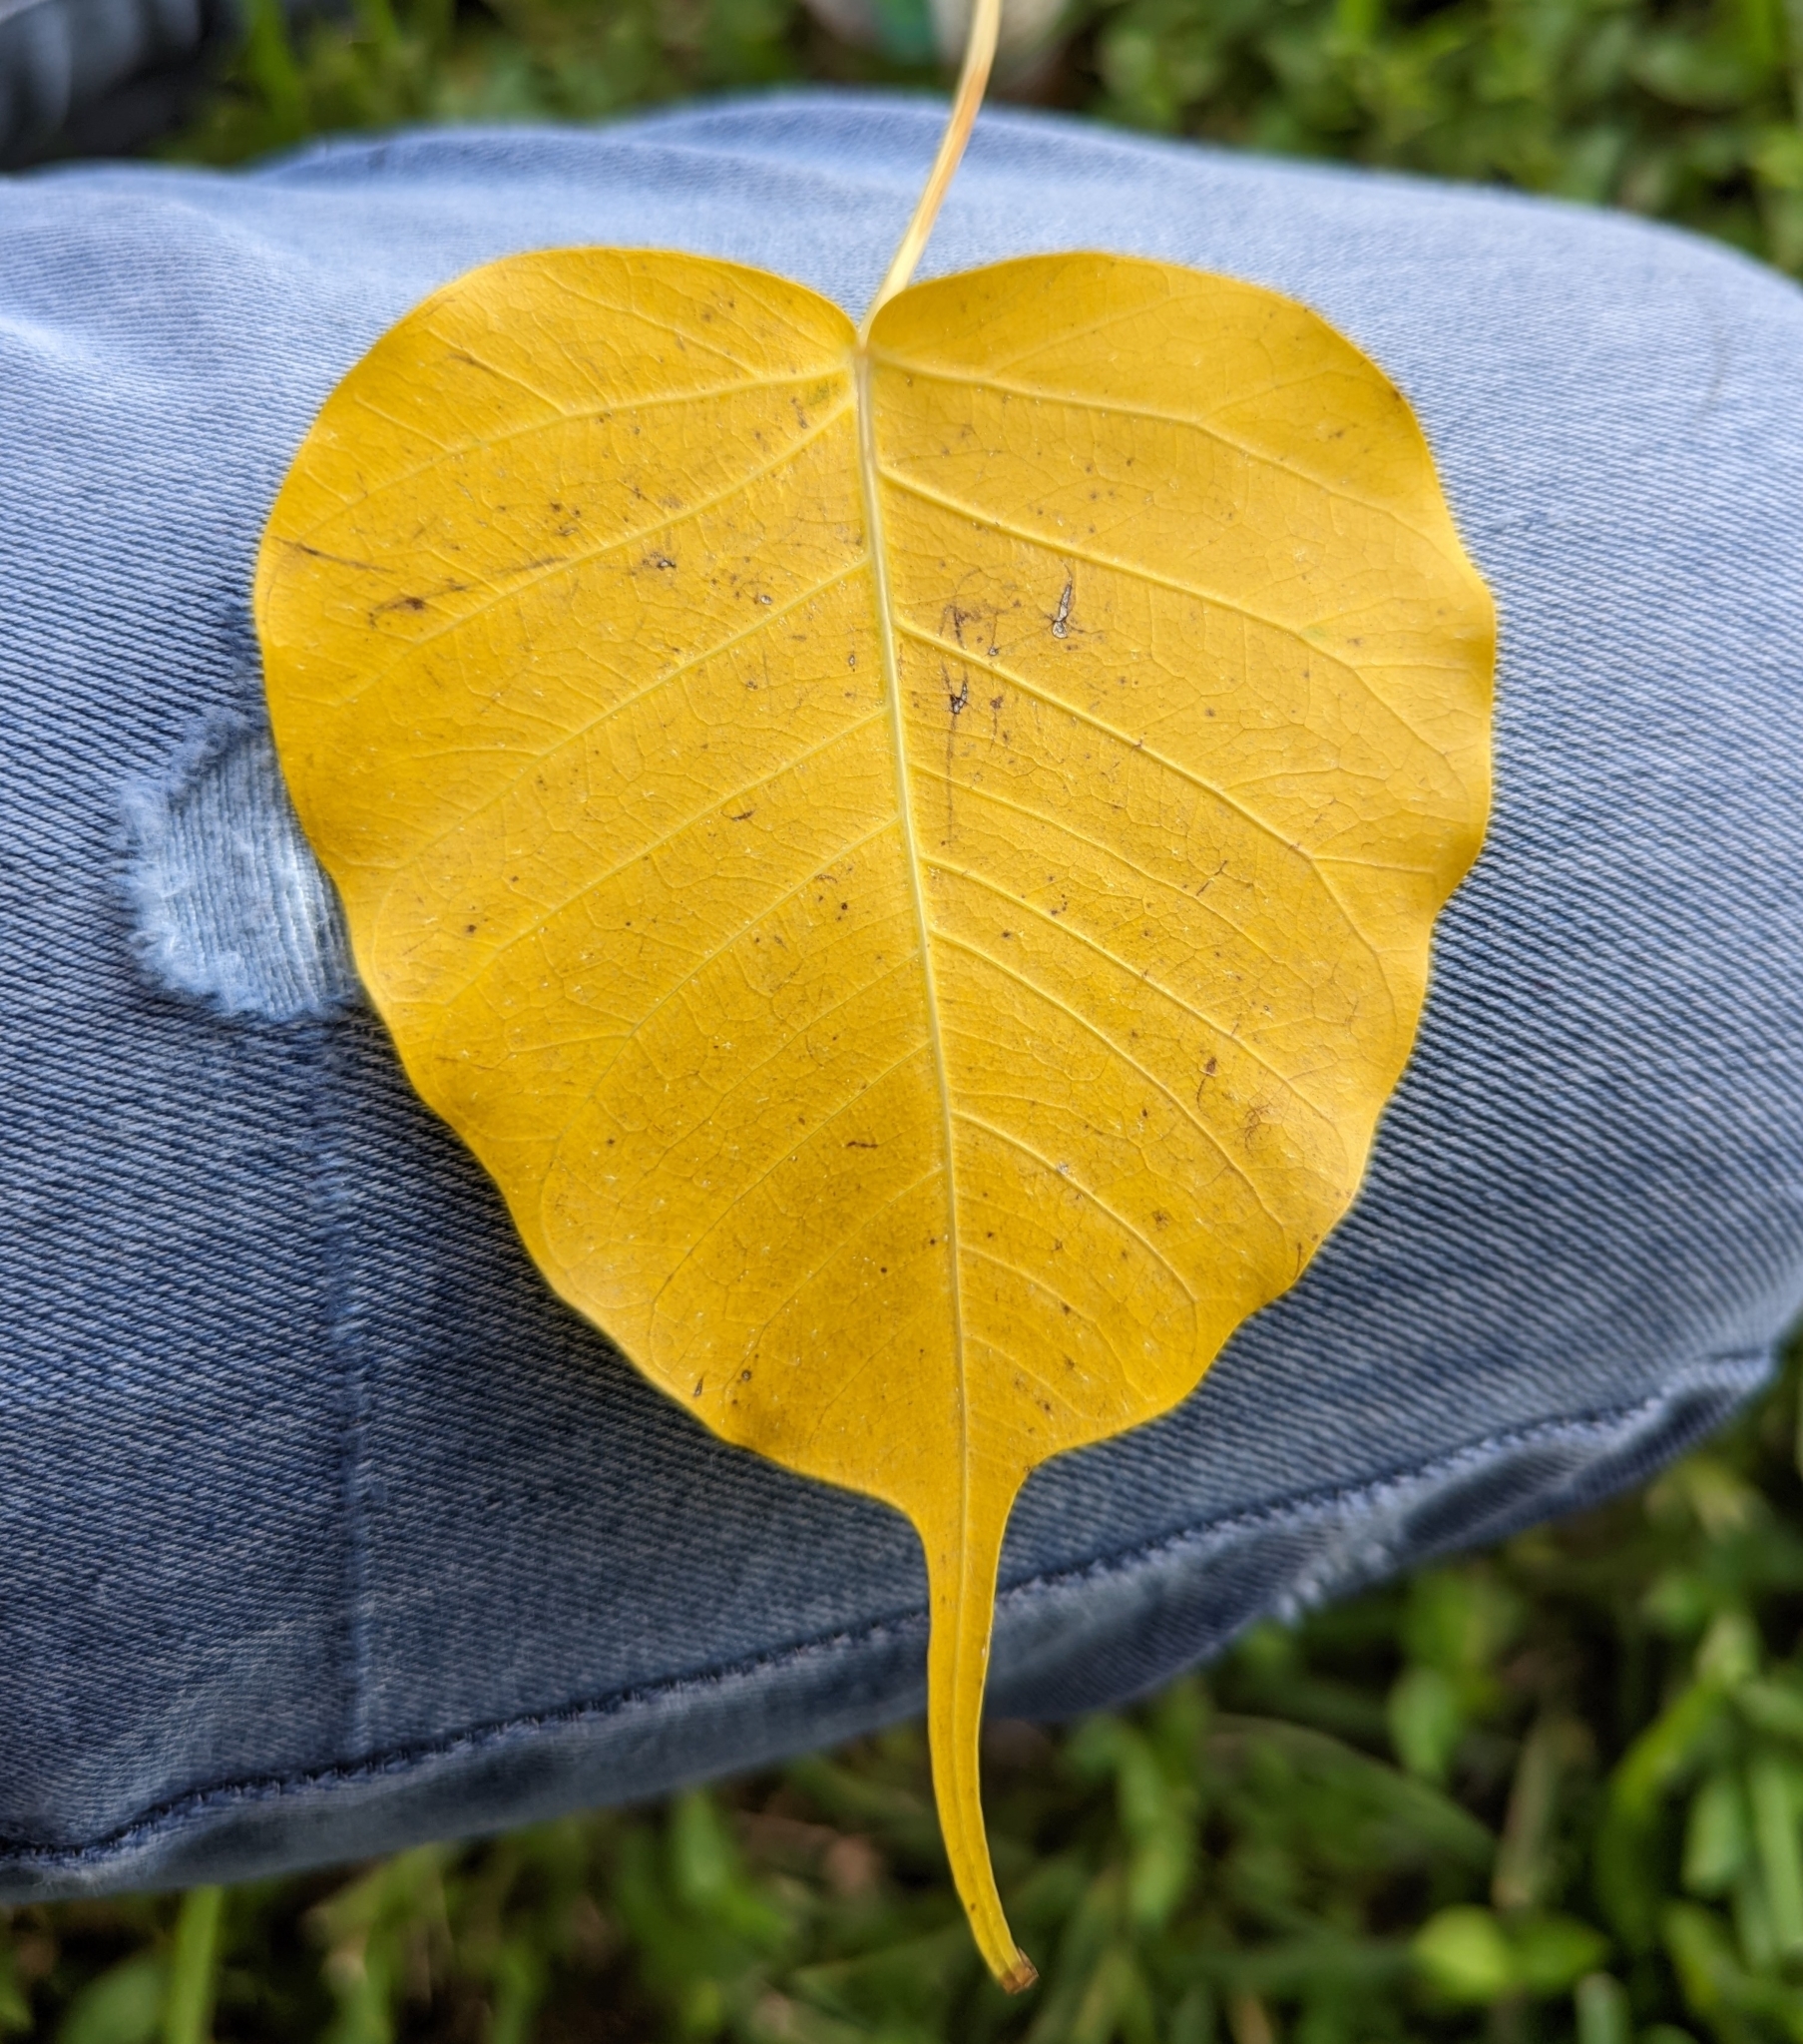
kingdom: Plantae
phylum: Tracheophyta
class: Magnoliopsida
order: Rosales
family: Moraceae
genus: Ficus
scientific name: Ficus religiosa
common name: Bodhi tree
